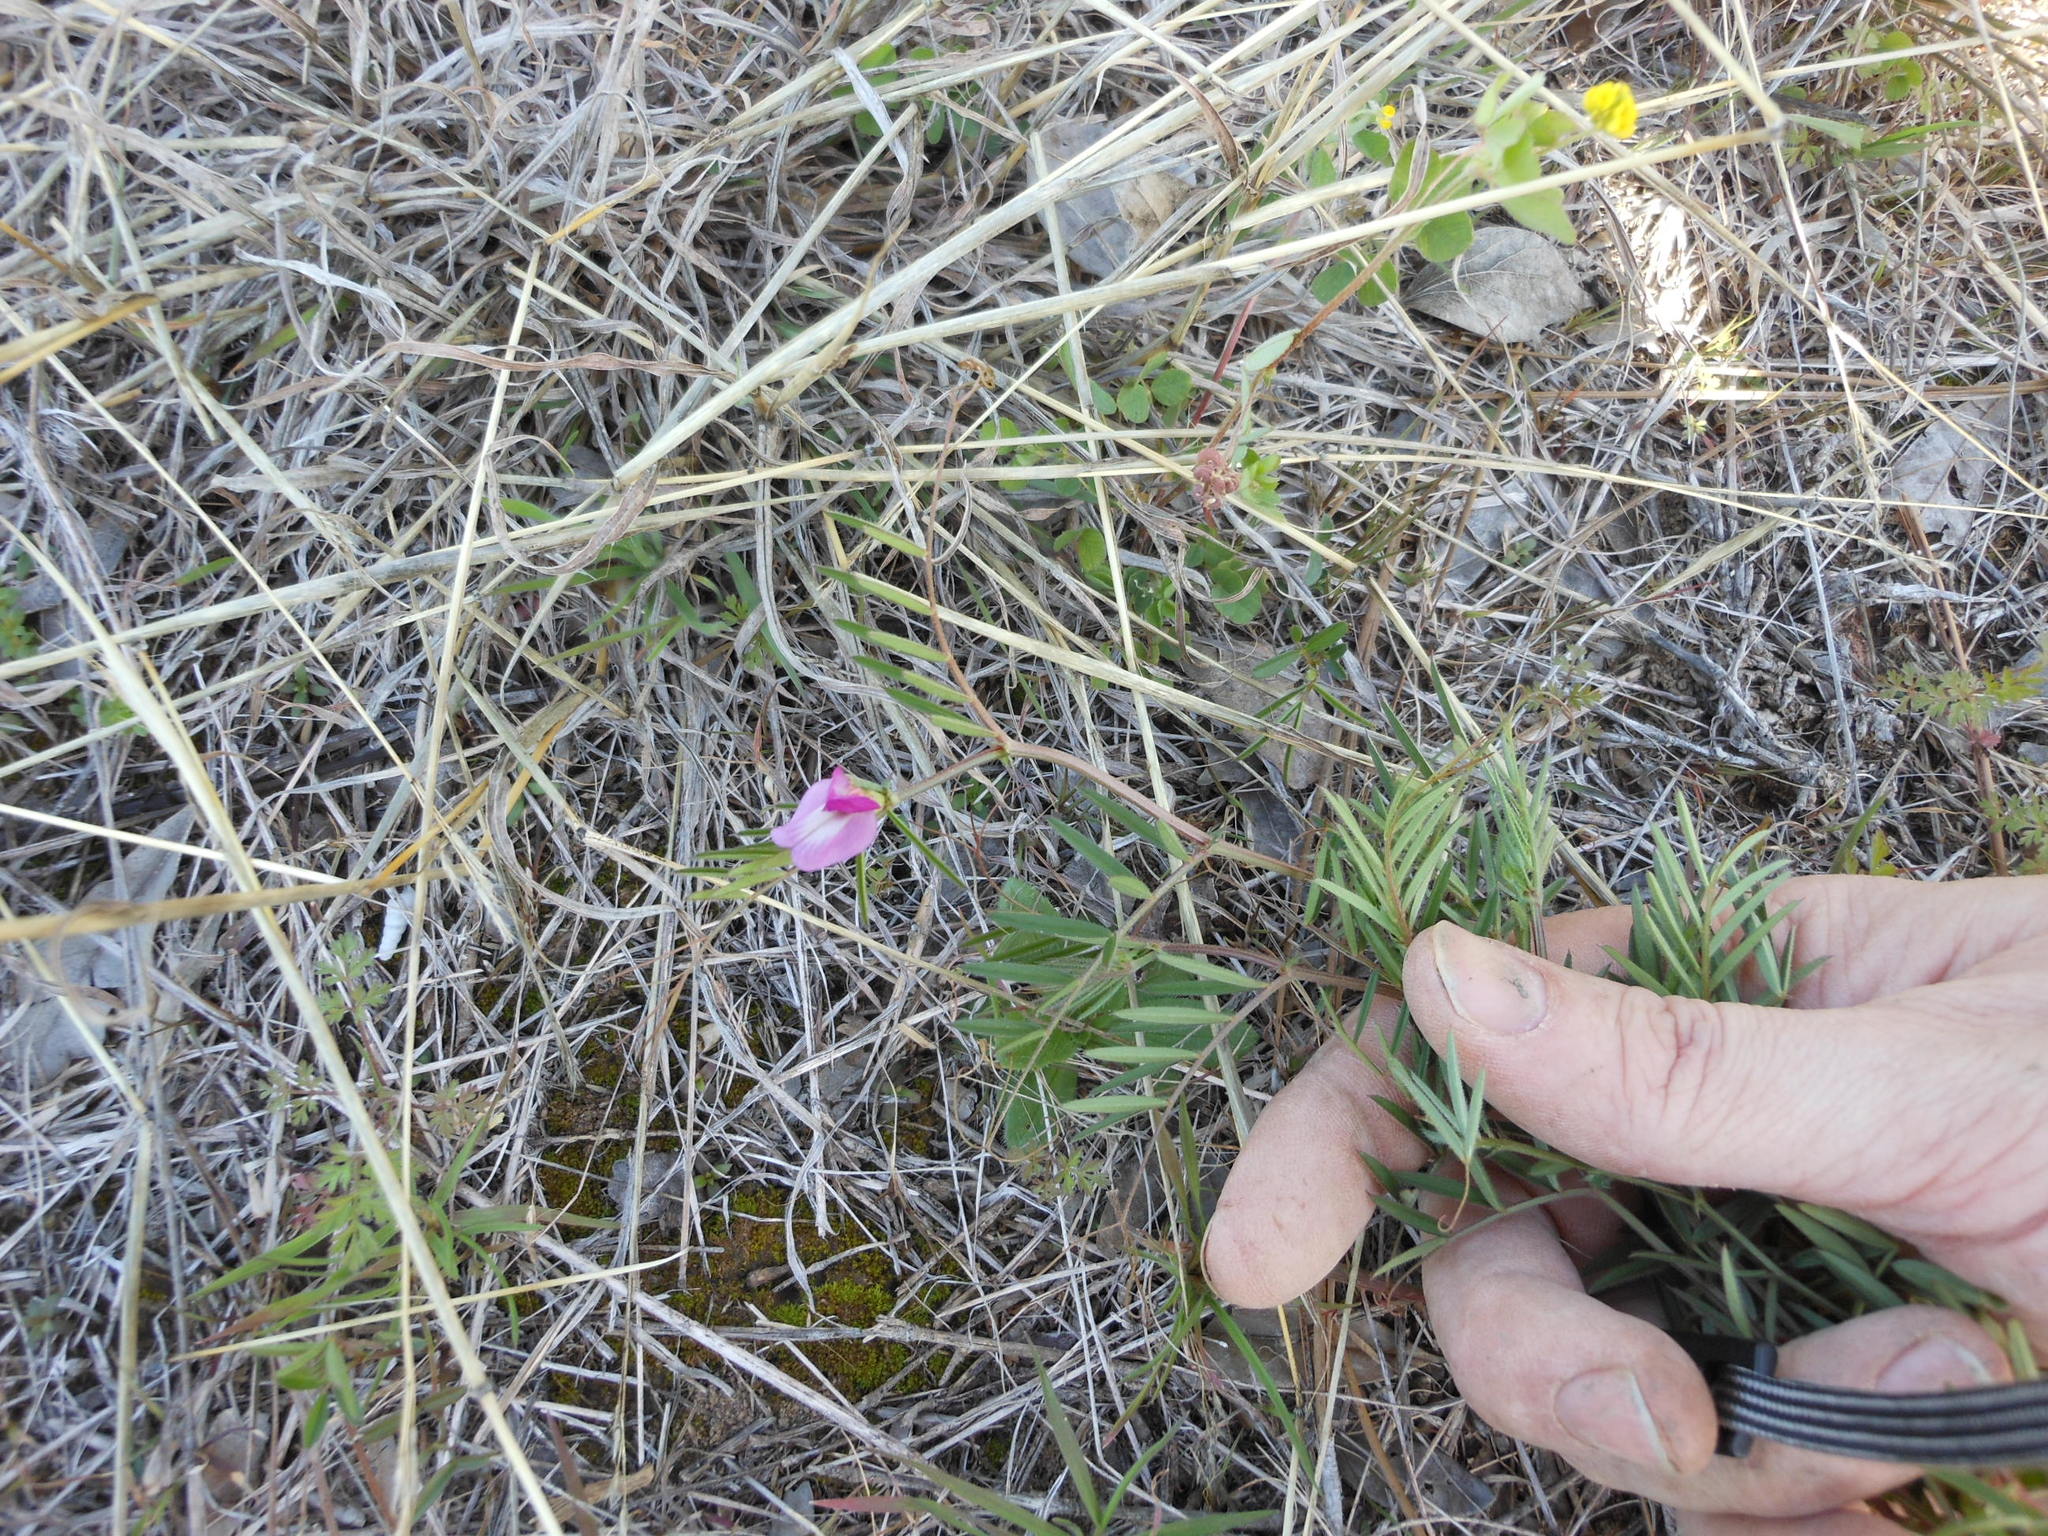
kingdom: Plantae
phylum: Tracheophyta
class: Magnoliopsida
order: Fabales
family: Fabaceae
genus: Vicia
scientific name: Vicia sativa
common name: Garden vetch
